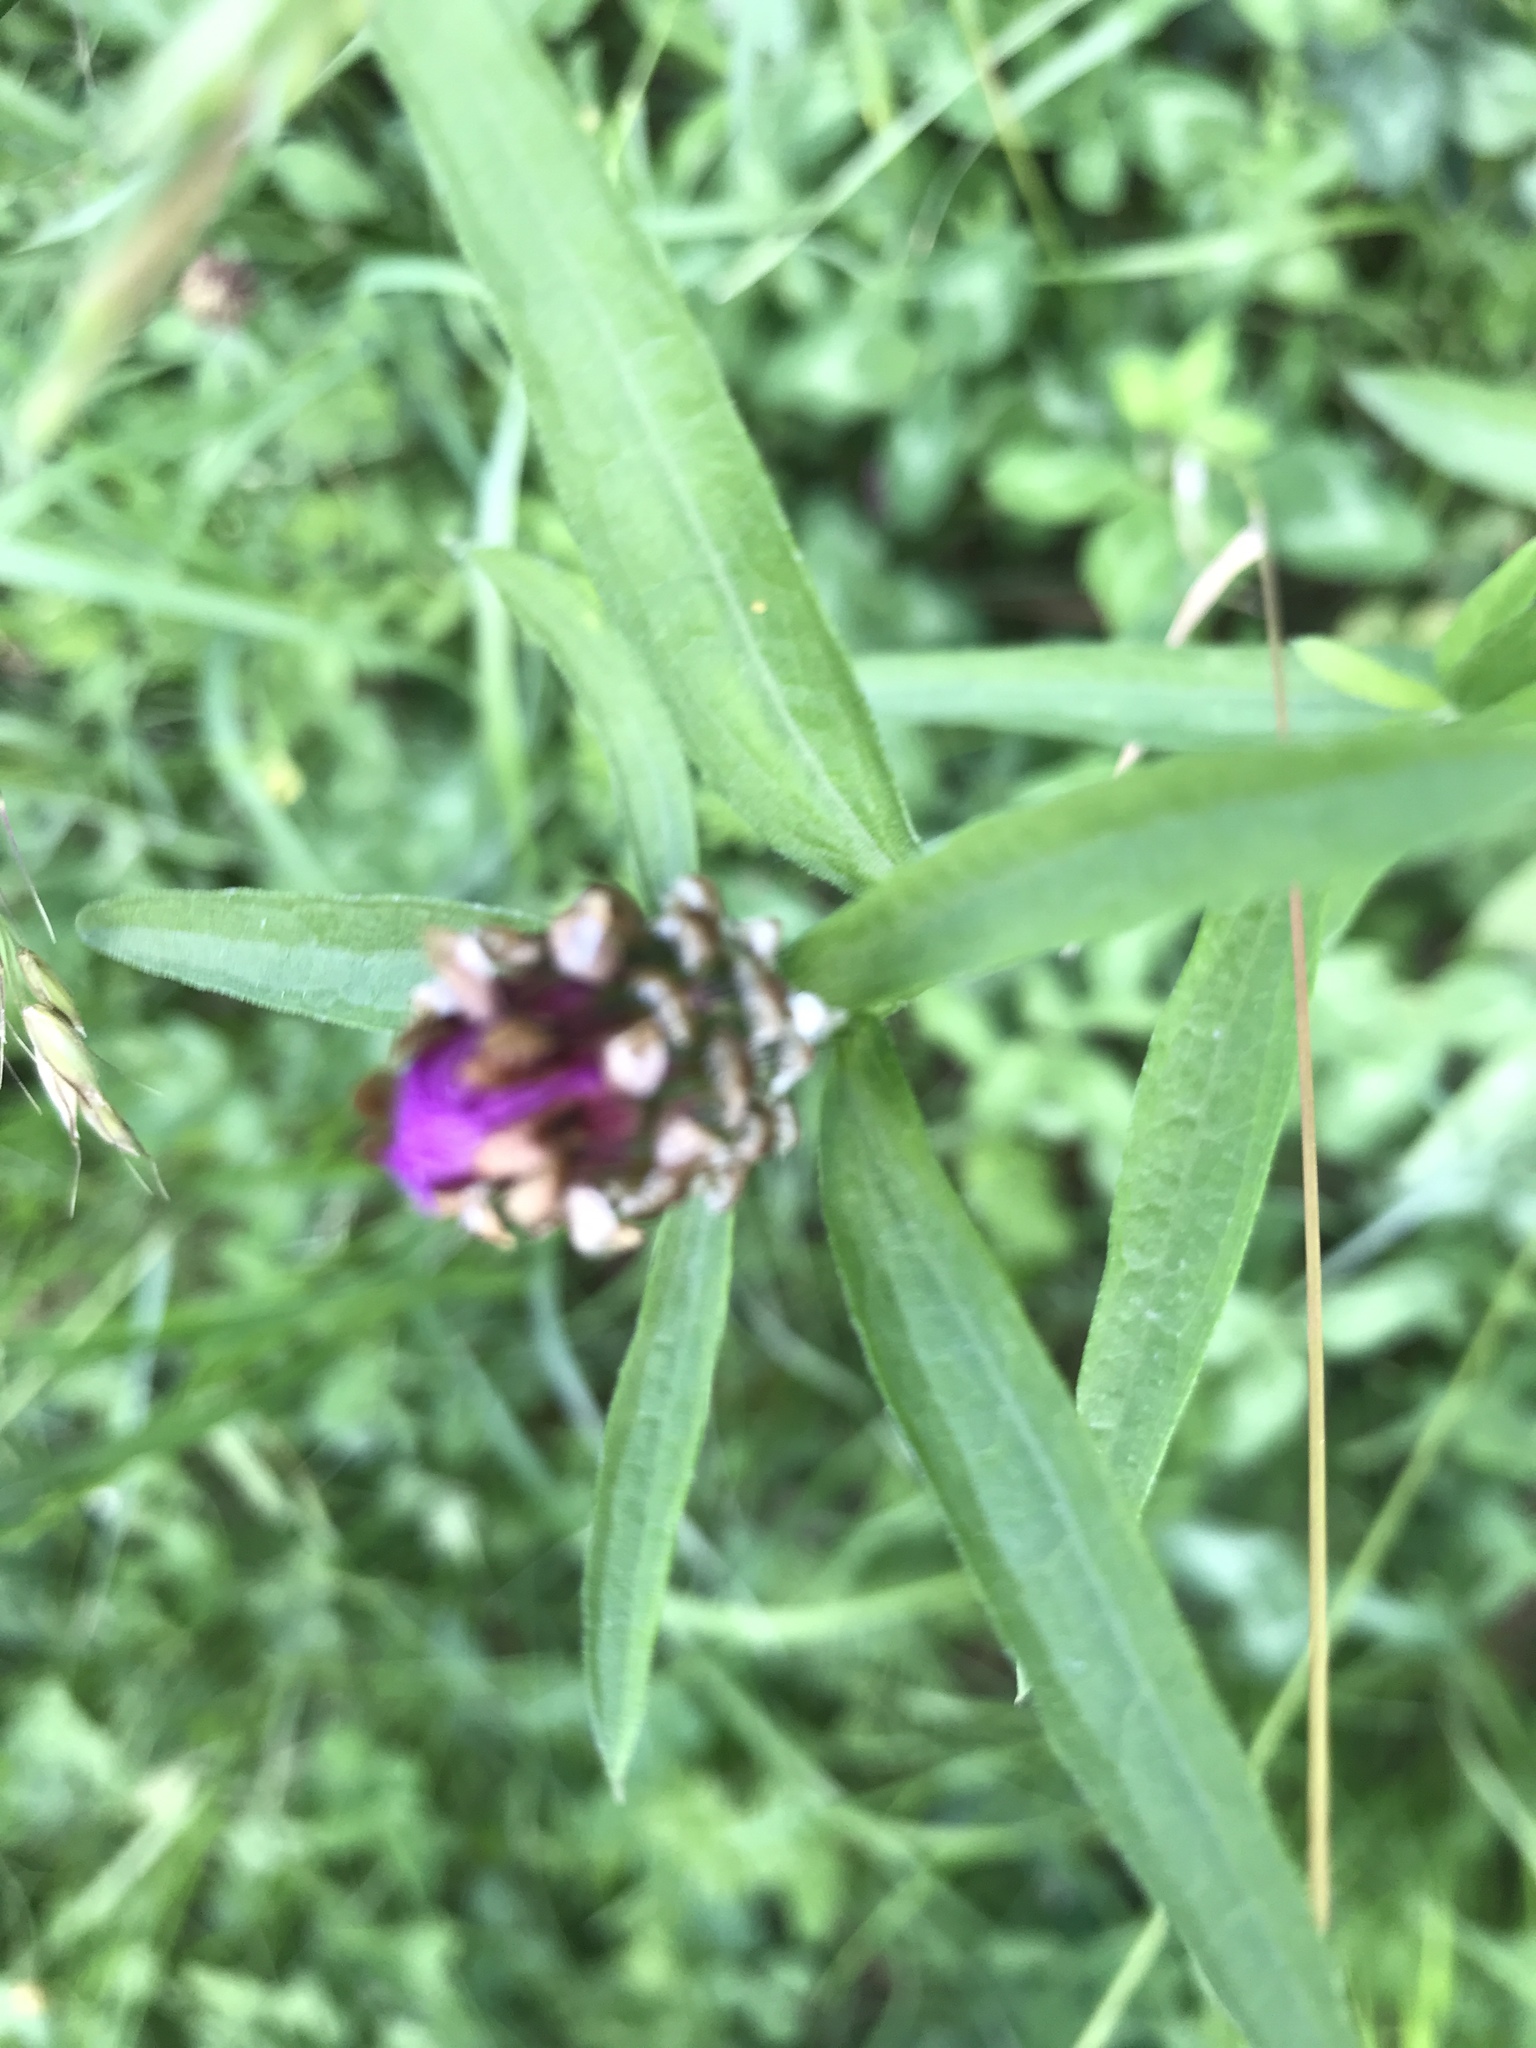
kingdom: Plantae
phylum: Tracheophyta
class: Magnoliopsida
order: Asterales
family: Asteraceae
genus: Centaurea
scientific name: Centaurea jacea
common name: Brown knapweed
